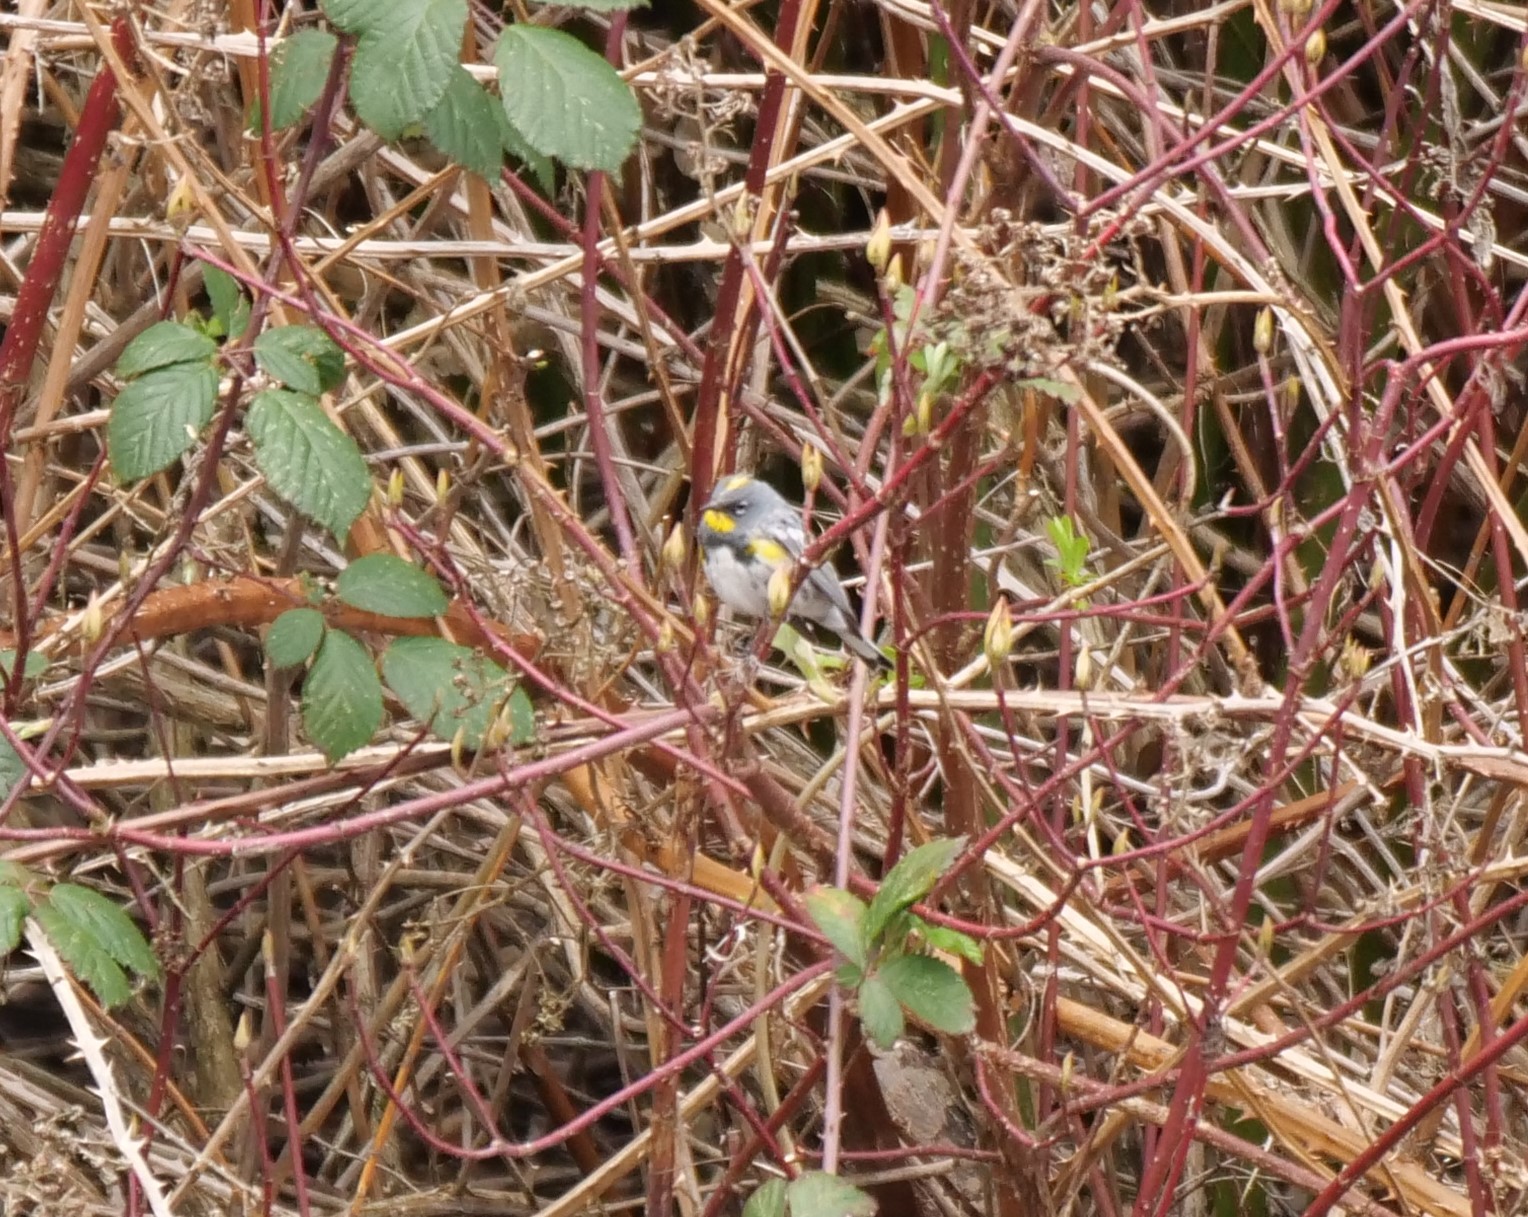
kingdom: Animalia
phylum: Chordata
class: Aves
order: Passeriformes
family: Parulidae
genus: Setophaga
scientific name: Setophaga coronata
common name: Myrtle warbler
